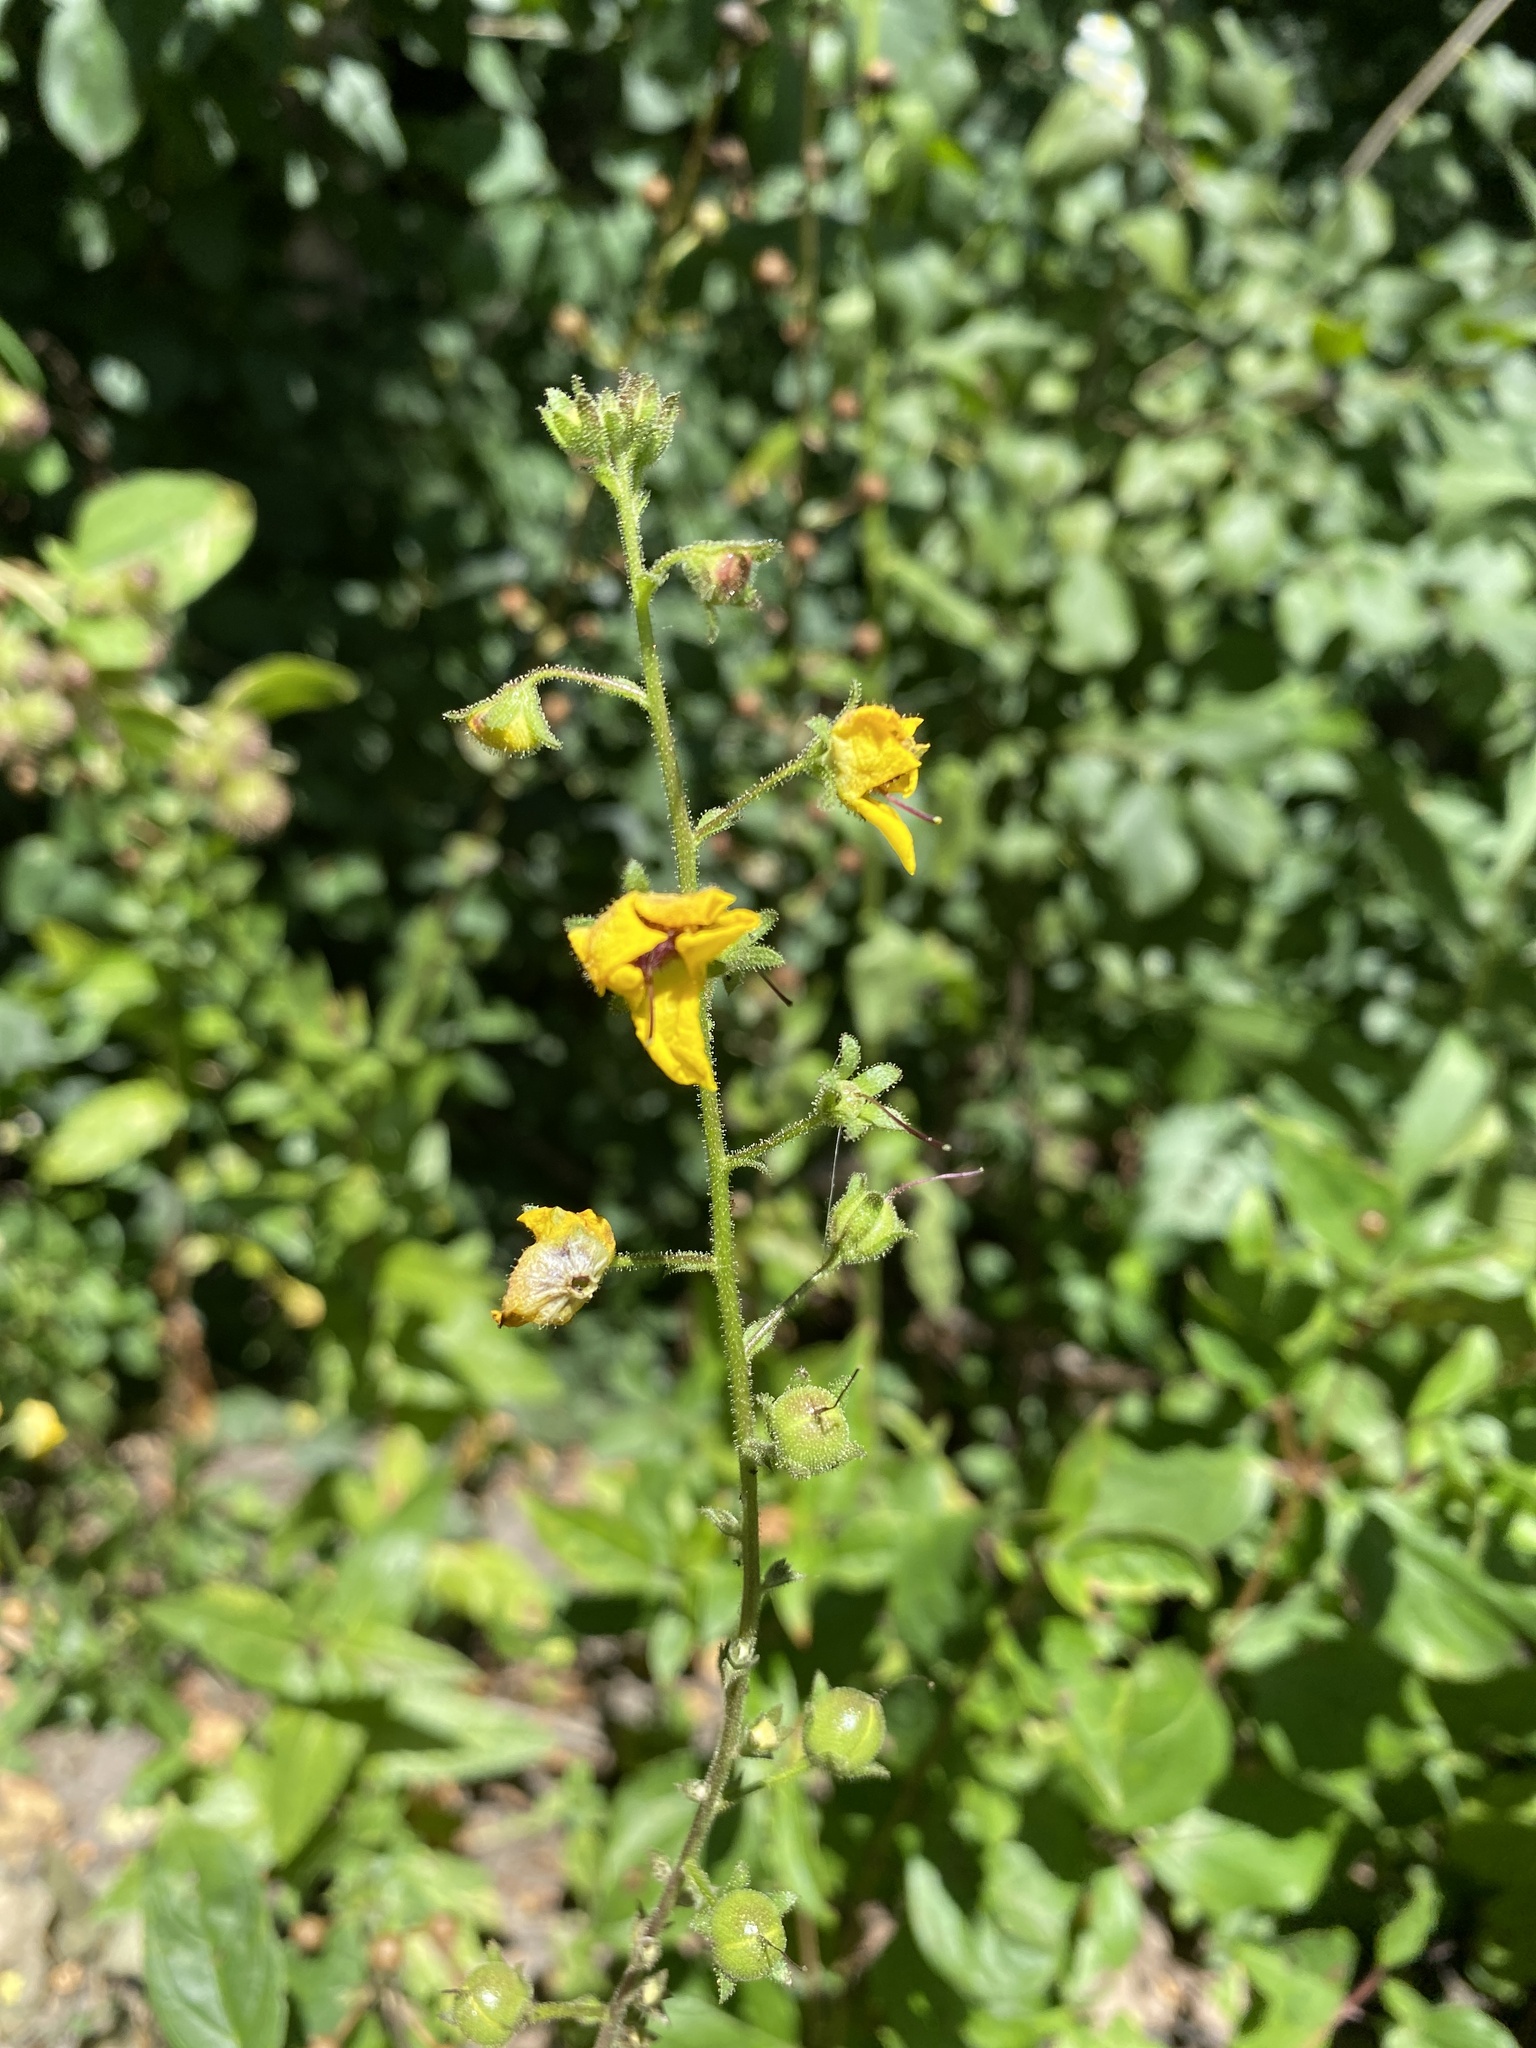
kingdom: Plantae
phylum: Tracheophyta
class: Magnoliopsida
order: Lamiales
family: Scrophulariaceae
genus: Verbascum
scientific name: Verbascum blattaria
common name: Moth mullein
